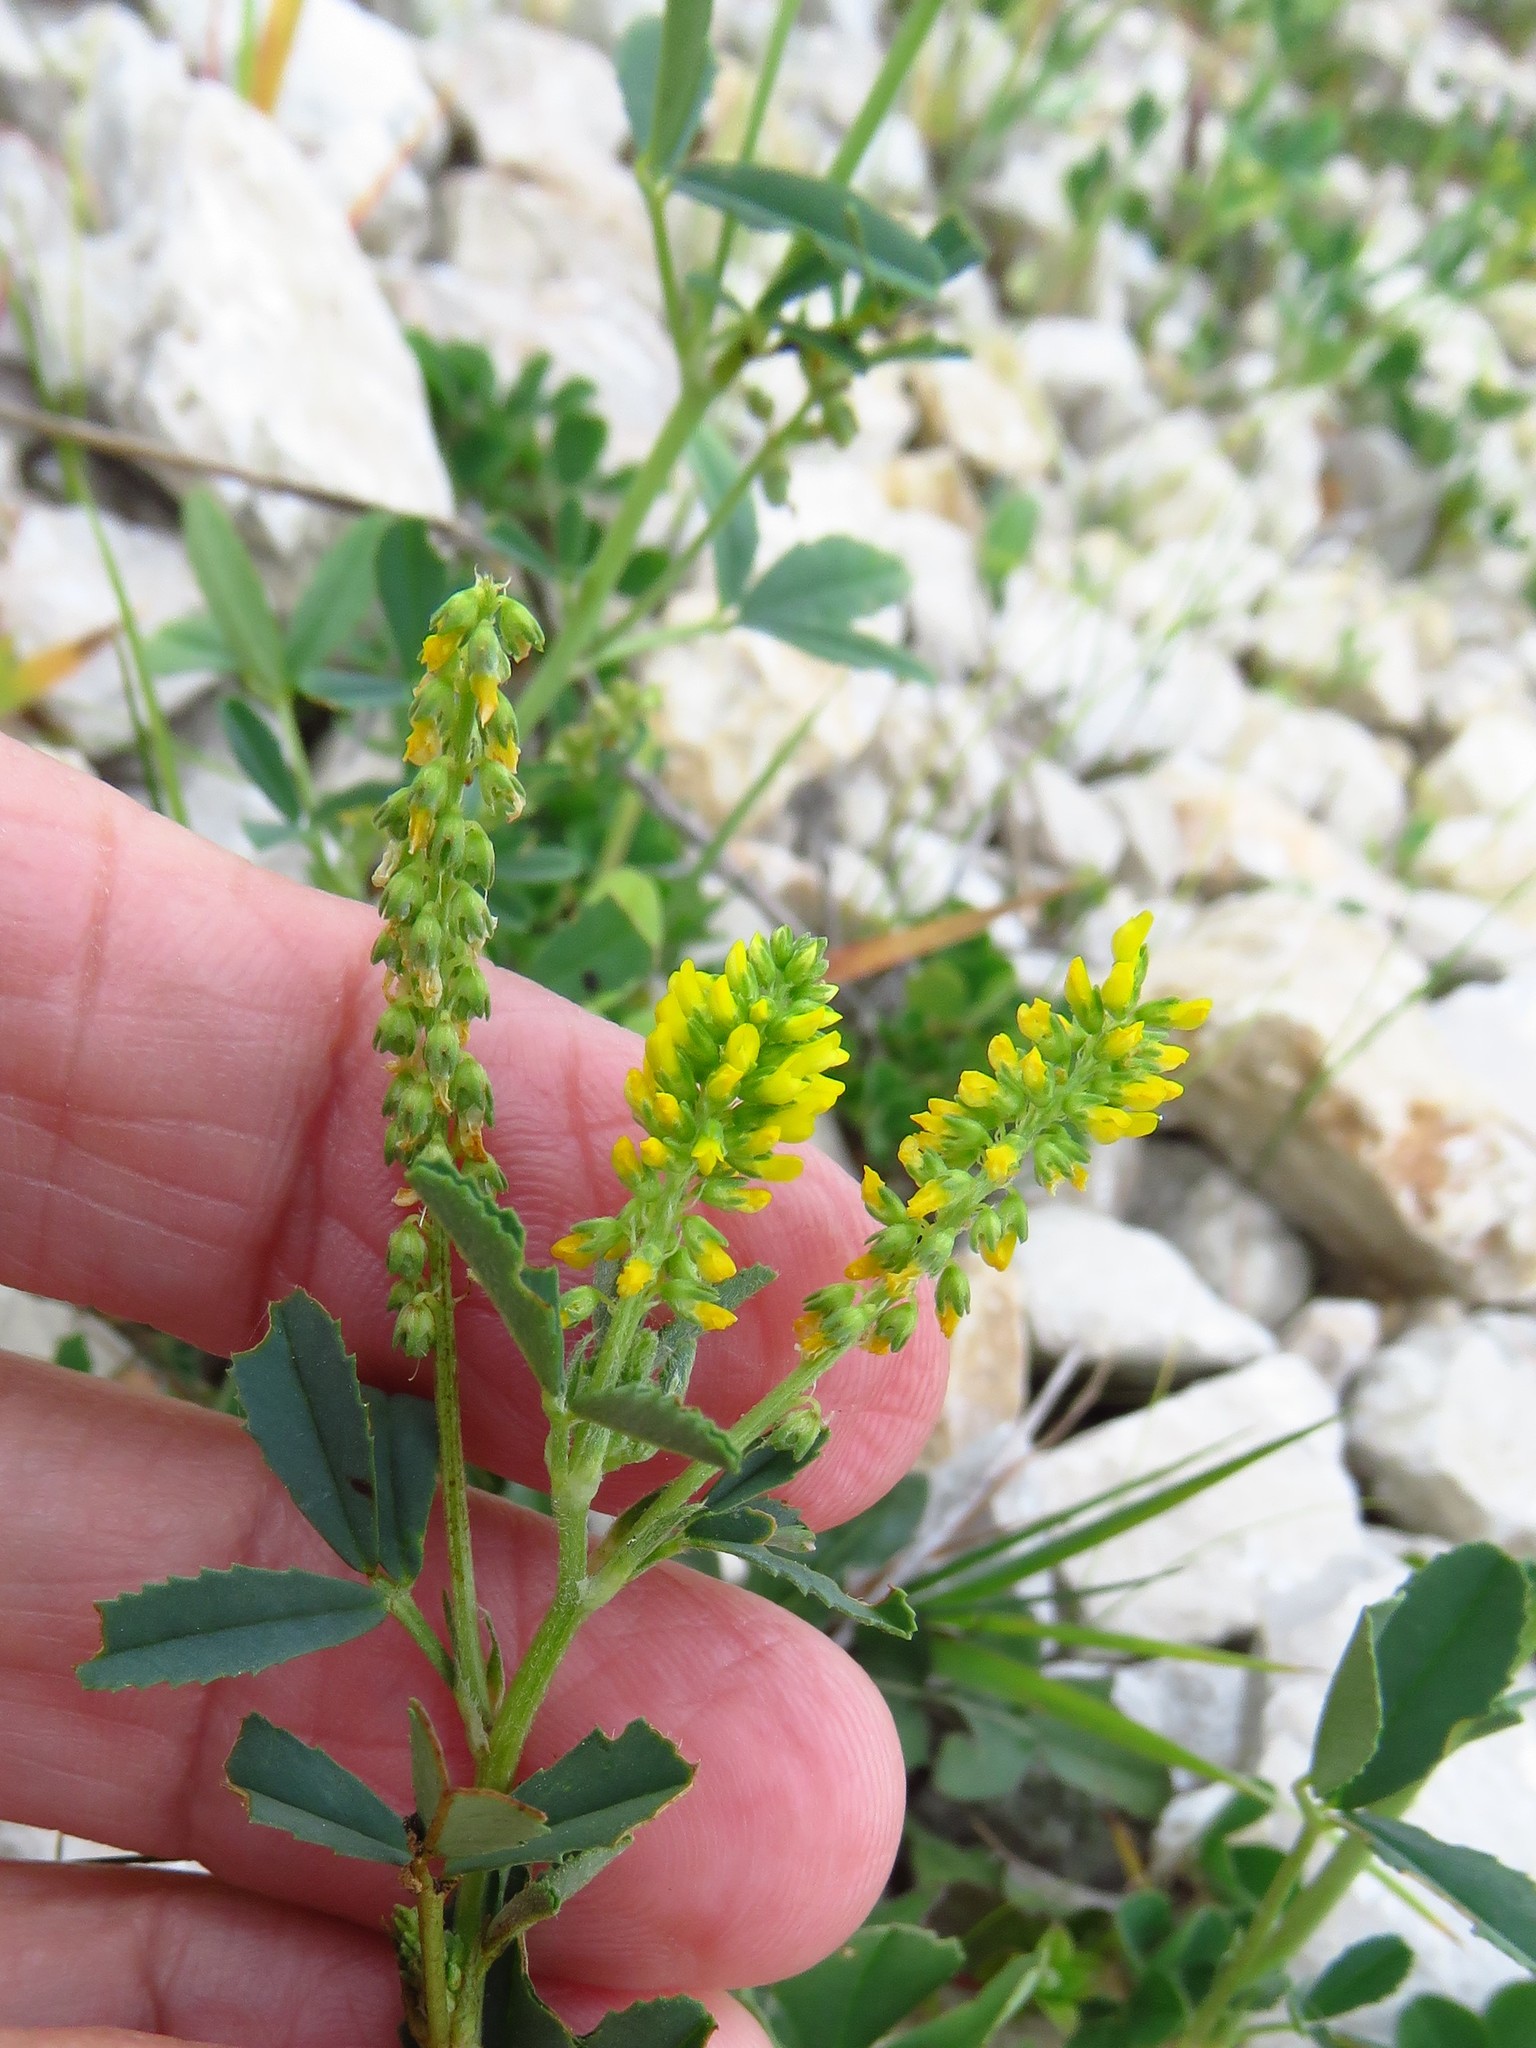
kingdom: Plantae
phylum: Tracheophyta
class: Magnoliopsida
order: Fabales
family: Fabaceae
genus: Melilotus
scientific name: Melilotus indicus
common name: Small melilot
